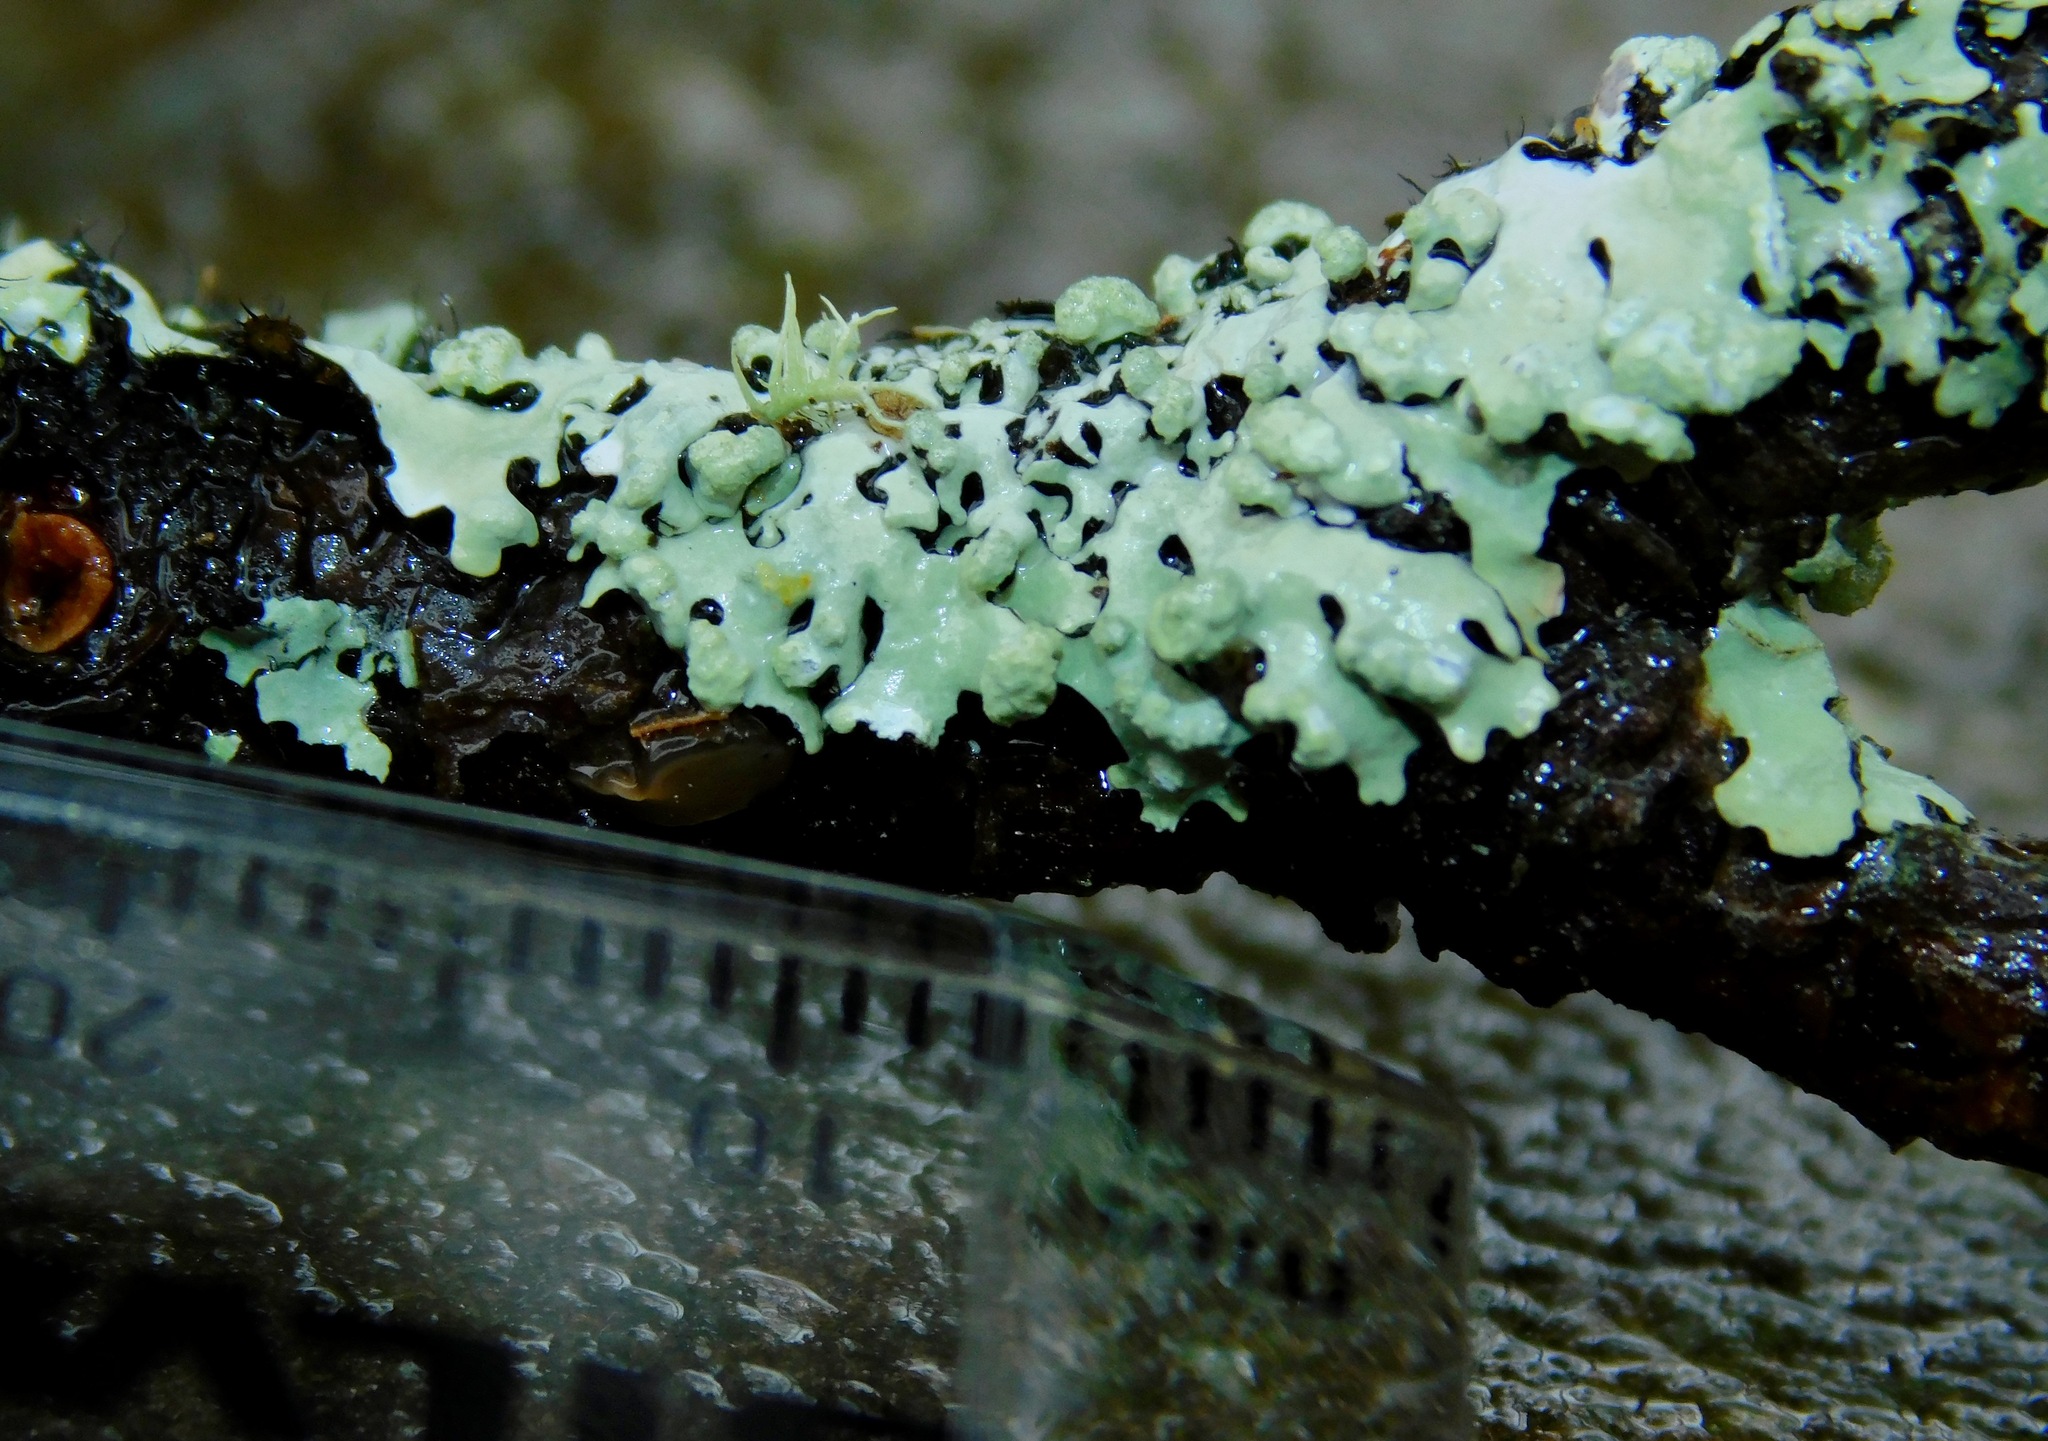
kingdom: Fungi
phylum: Ascomycota
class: Lecanoromycetes
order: Lecanorales
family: Parmeliaceae
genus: Myelochroa
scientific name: Myelochroa metarevoluta
